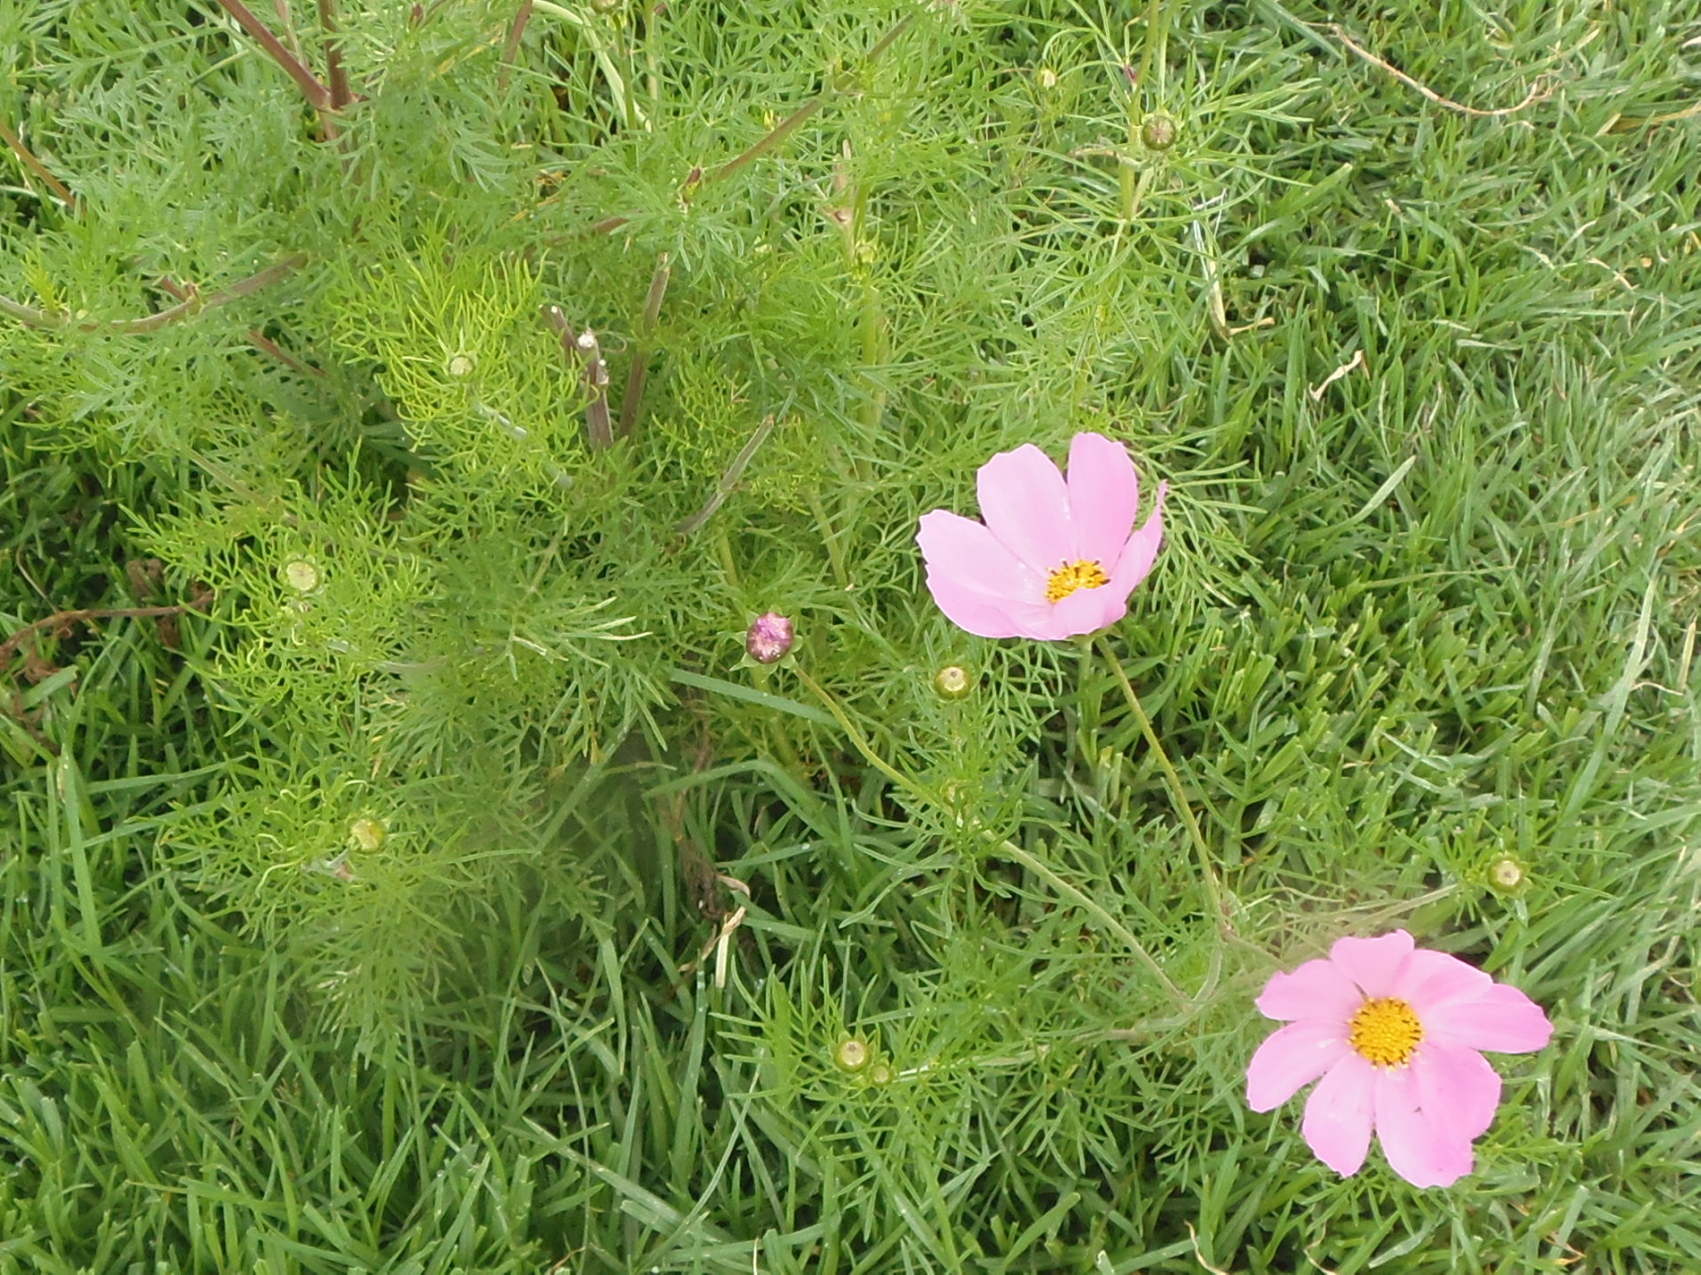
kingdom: Plantae
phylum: Tracheophyta
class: Magnoliopsida
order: Asterales
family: Asteraceae
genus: Cosmos
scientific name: Cosmos bipinnatus
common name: Garden cosmos
